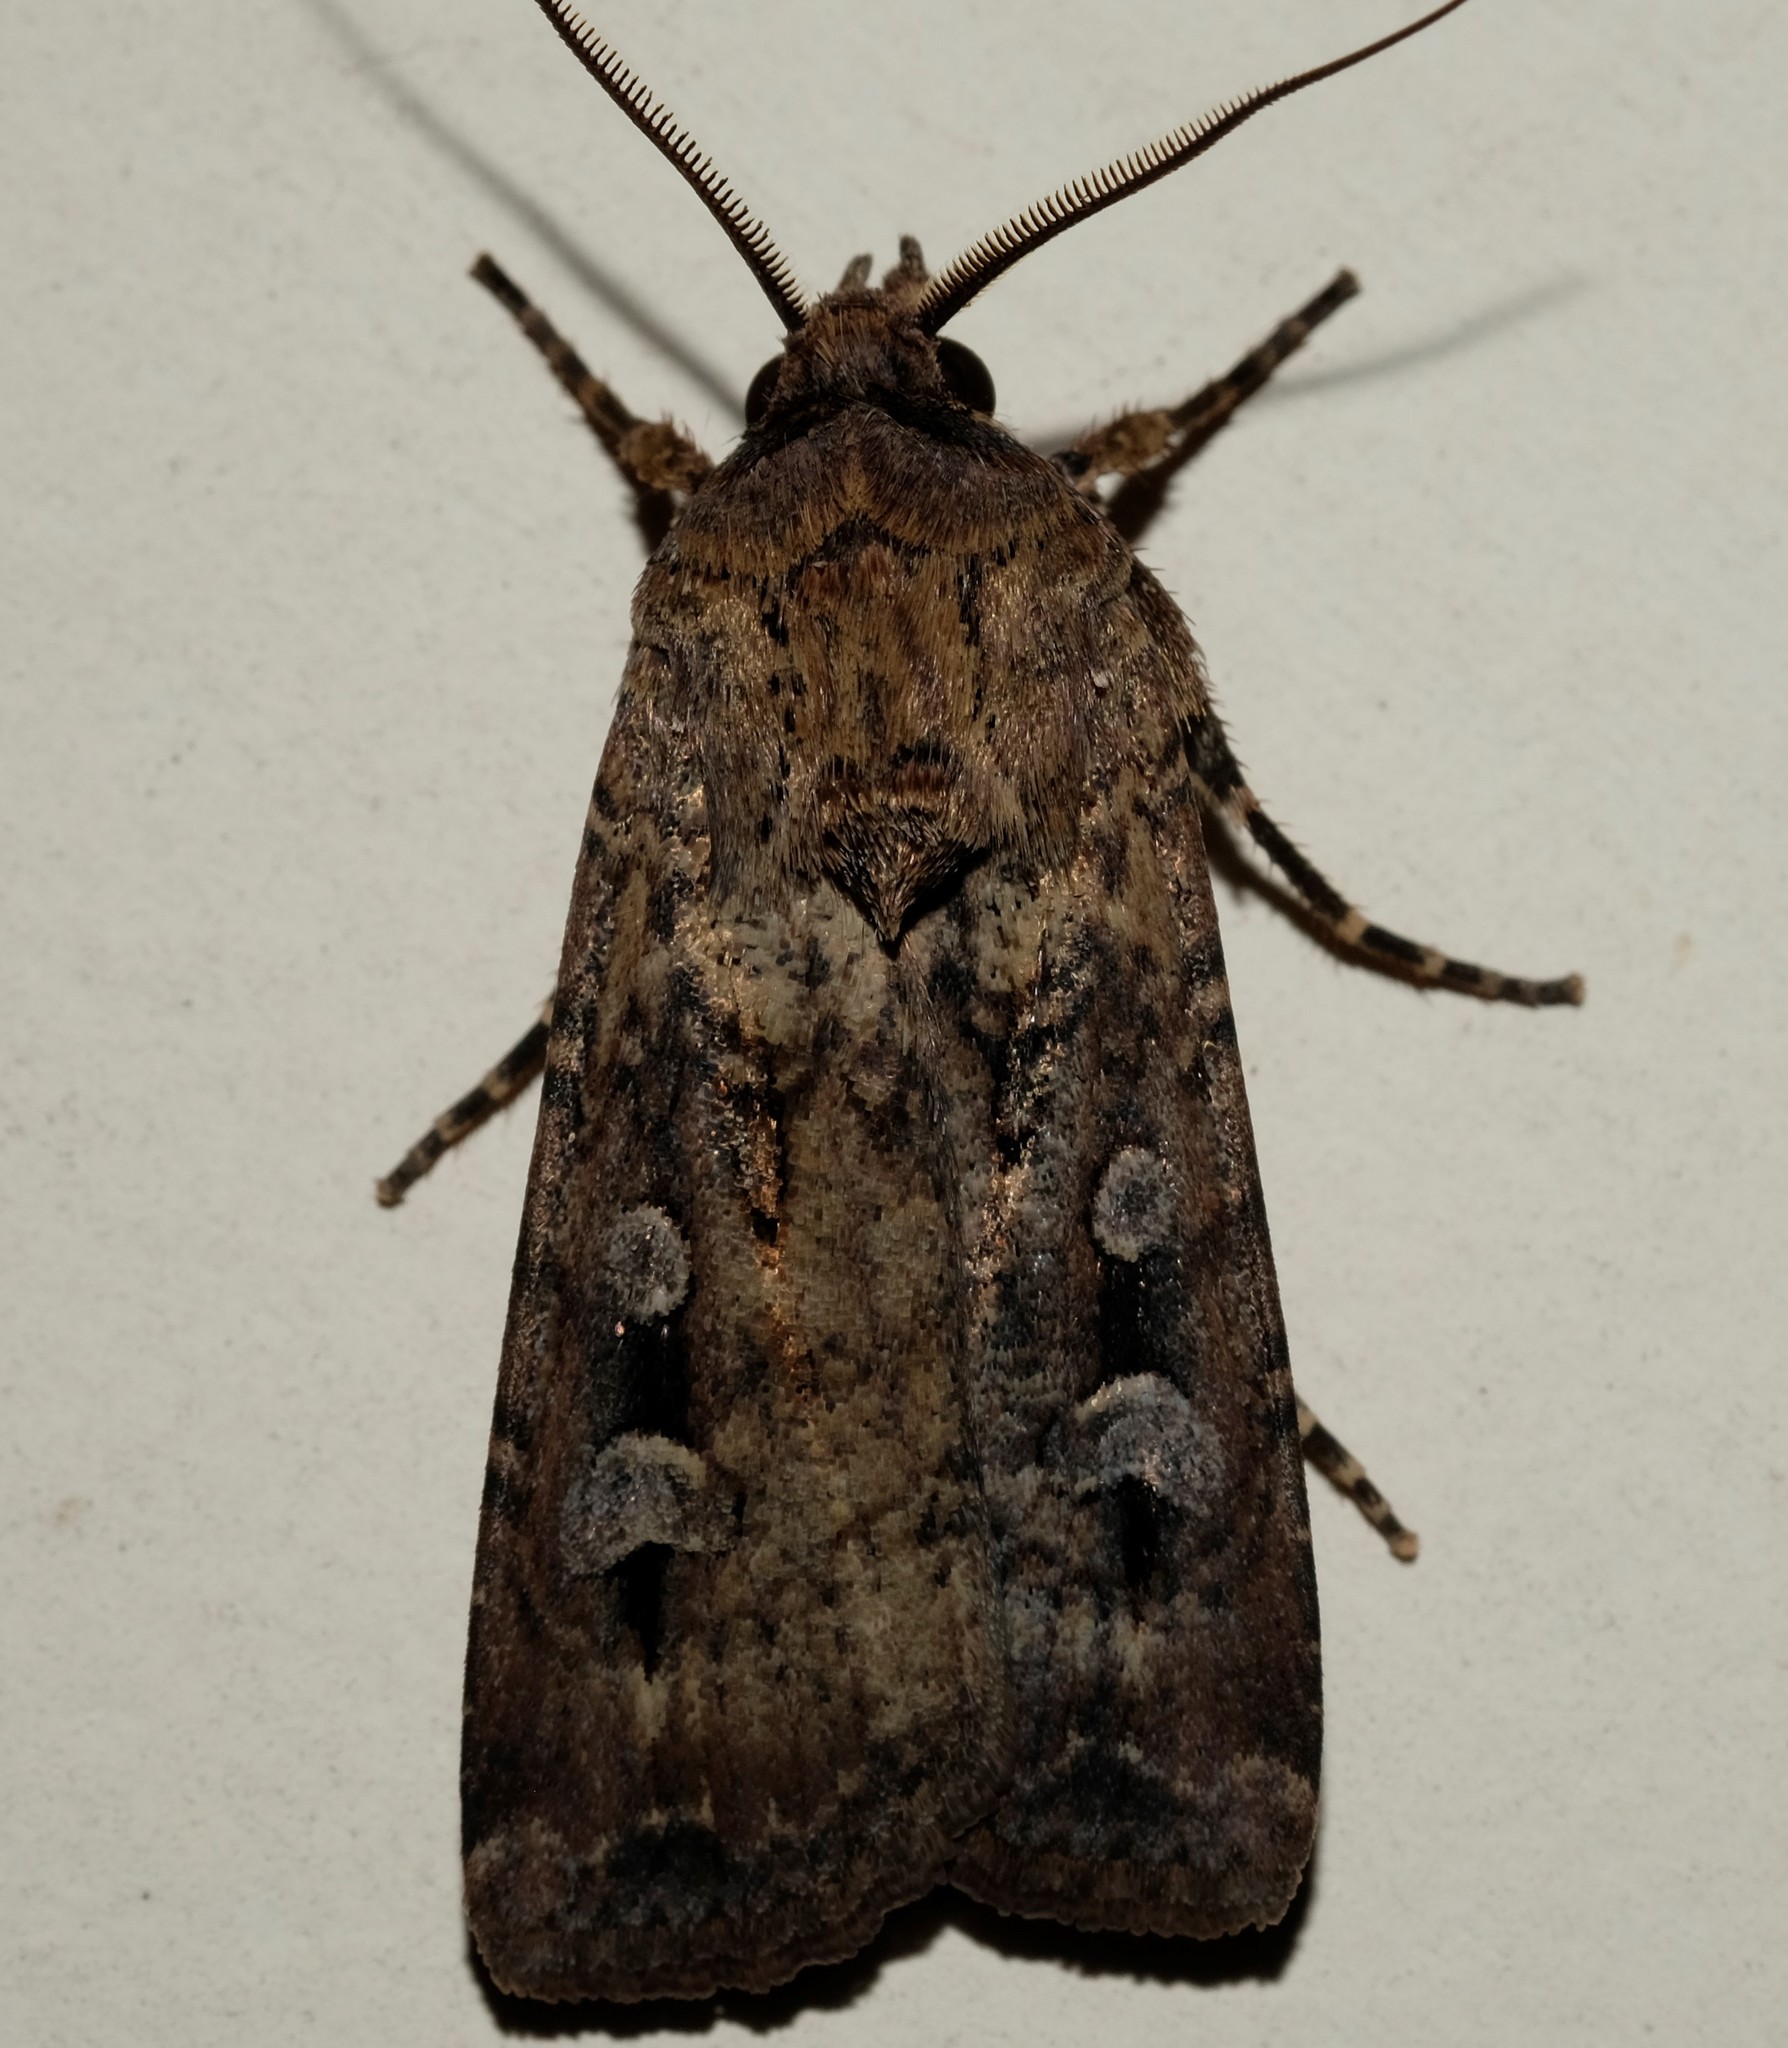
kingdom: Animalia
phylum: Arthropoda
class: Insecta
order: Lepidoptera
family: Noctuidae
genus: Agrotis
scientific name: Agrotis infusa
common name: Bogong moth
